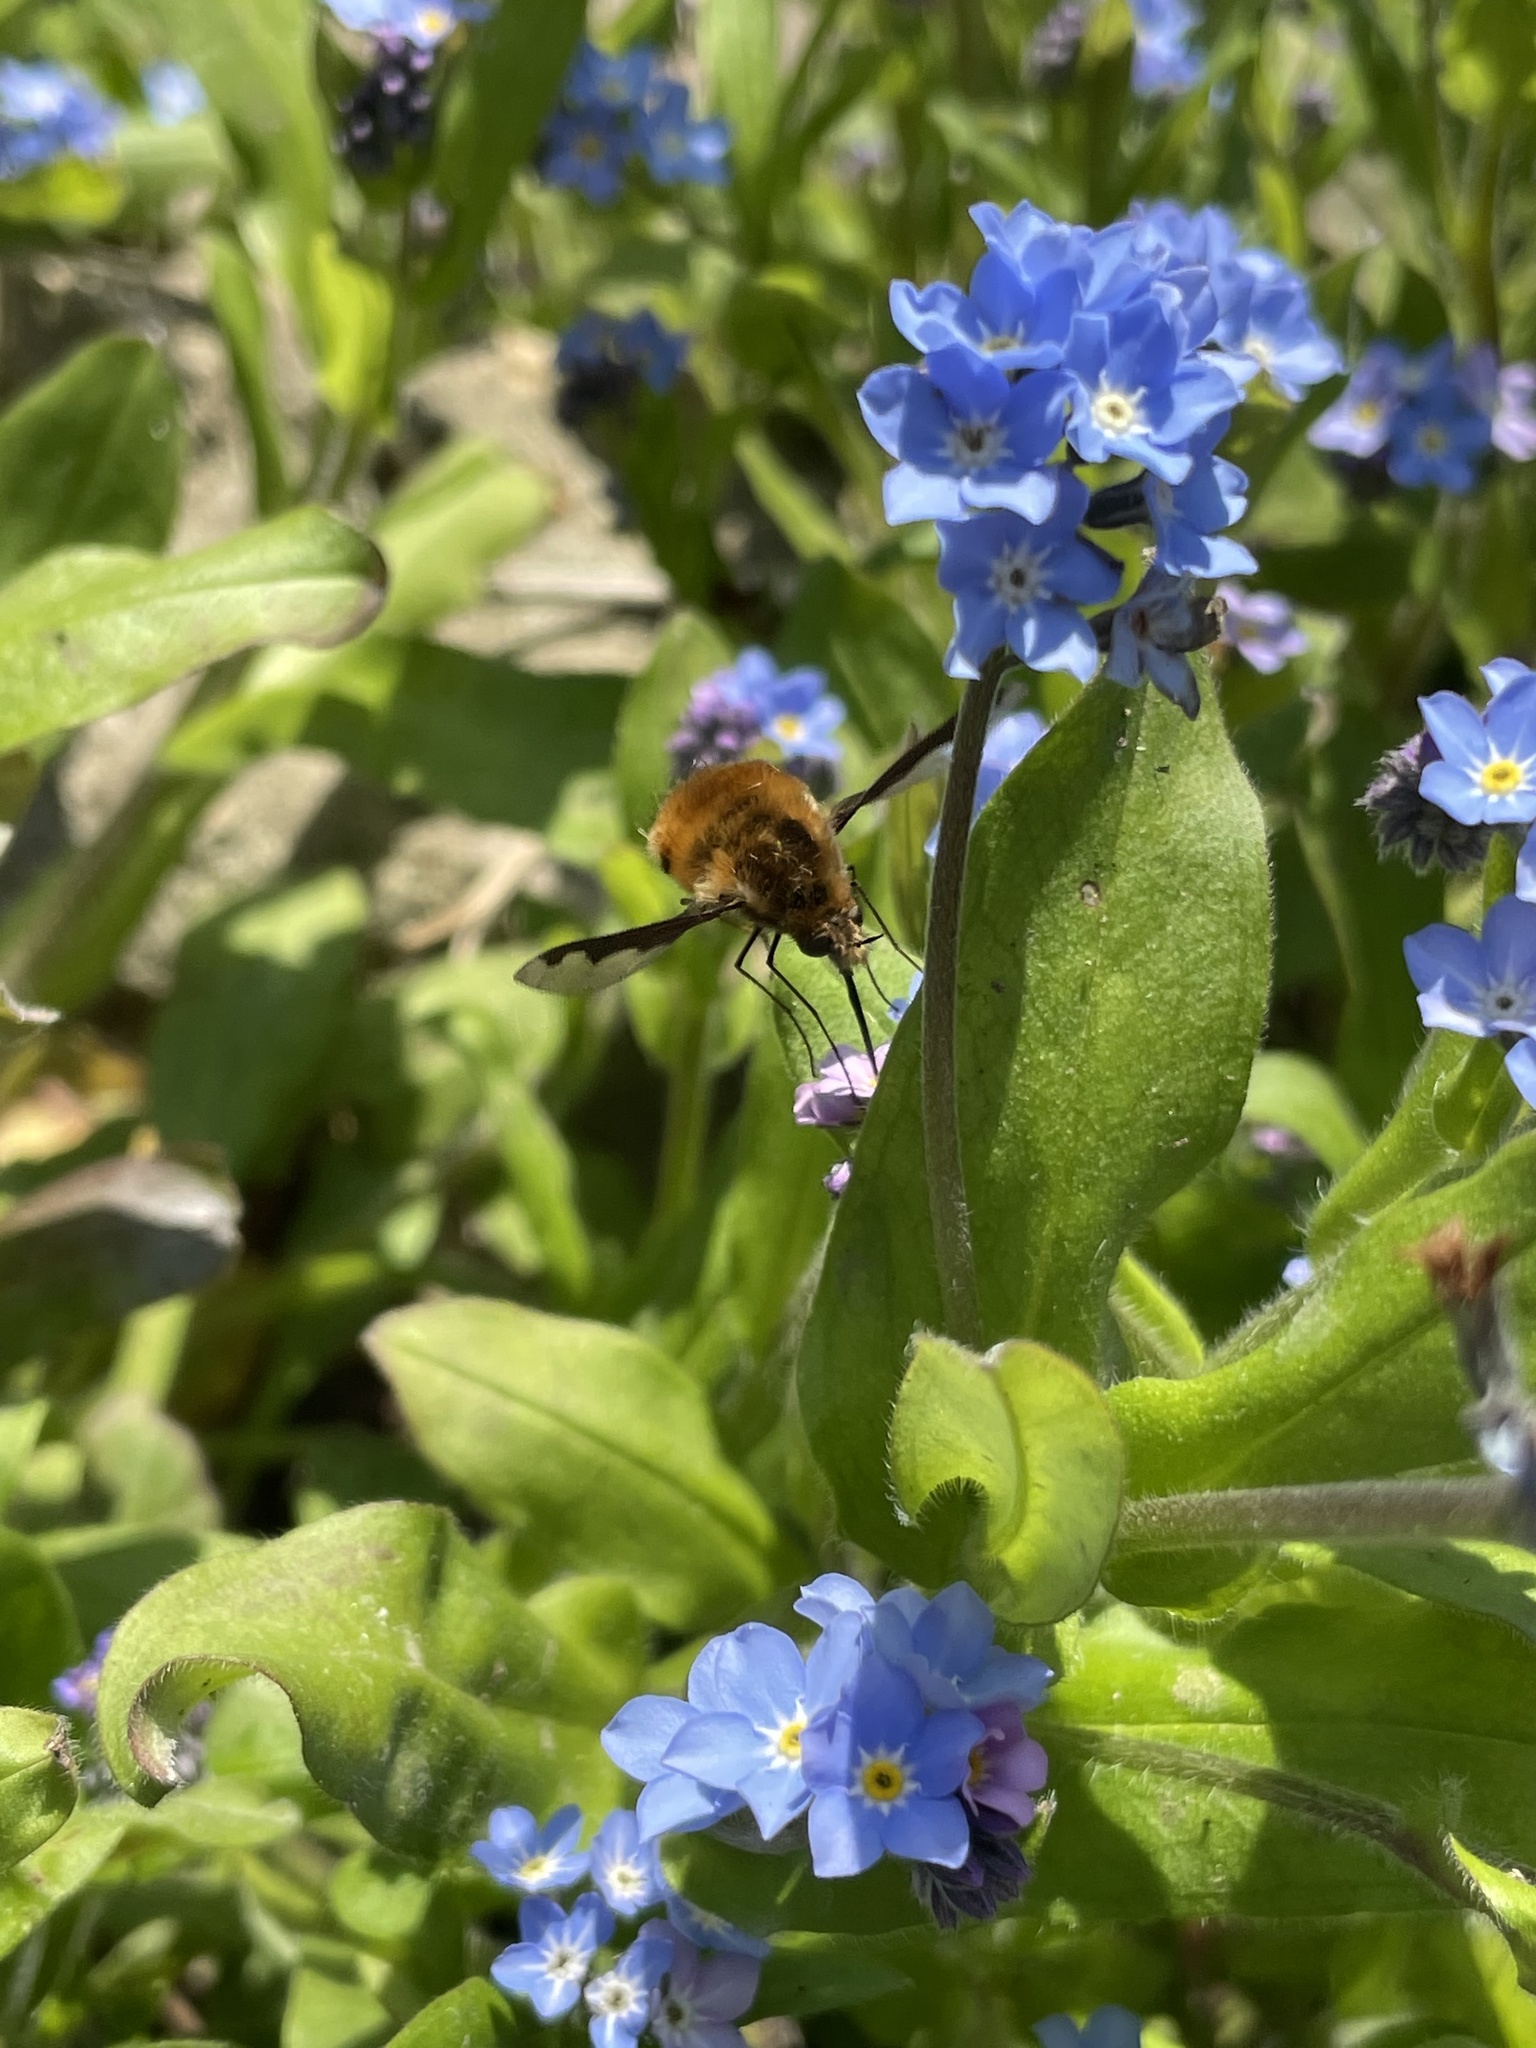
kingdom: Animalia
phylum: Arthropoda
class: Insecta
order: Diptera
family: Bombyliidae
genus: Bombylius
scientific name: Bombylius major
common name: Bee fly
